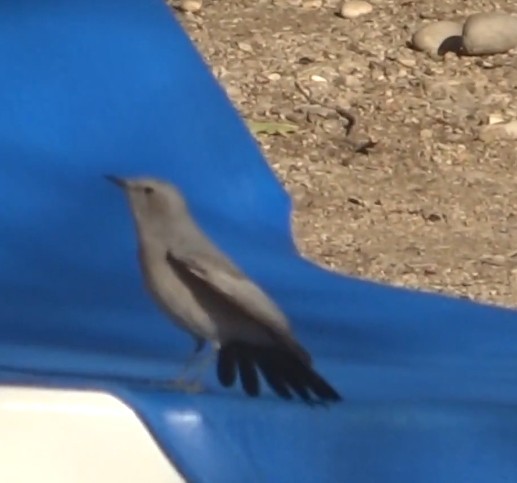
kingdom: Animalia
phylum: Chordata
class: Aves
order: Passeriformes
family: Muscicapidae
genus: Oenanthe
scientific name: Oenanthe melanura
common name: Blackstart
